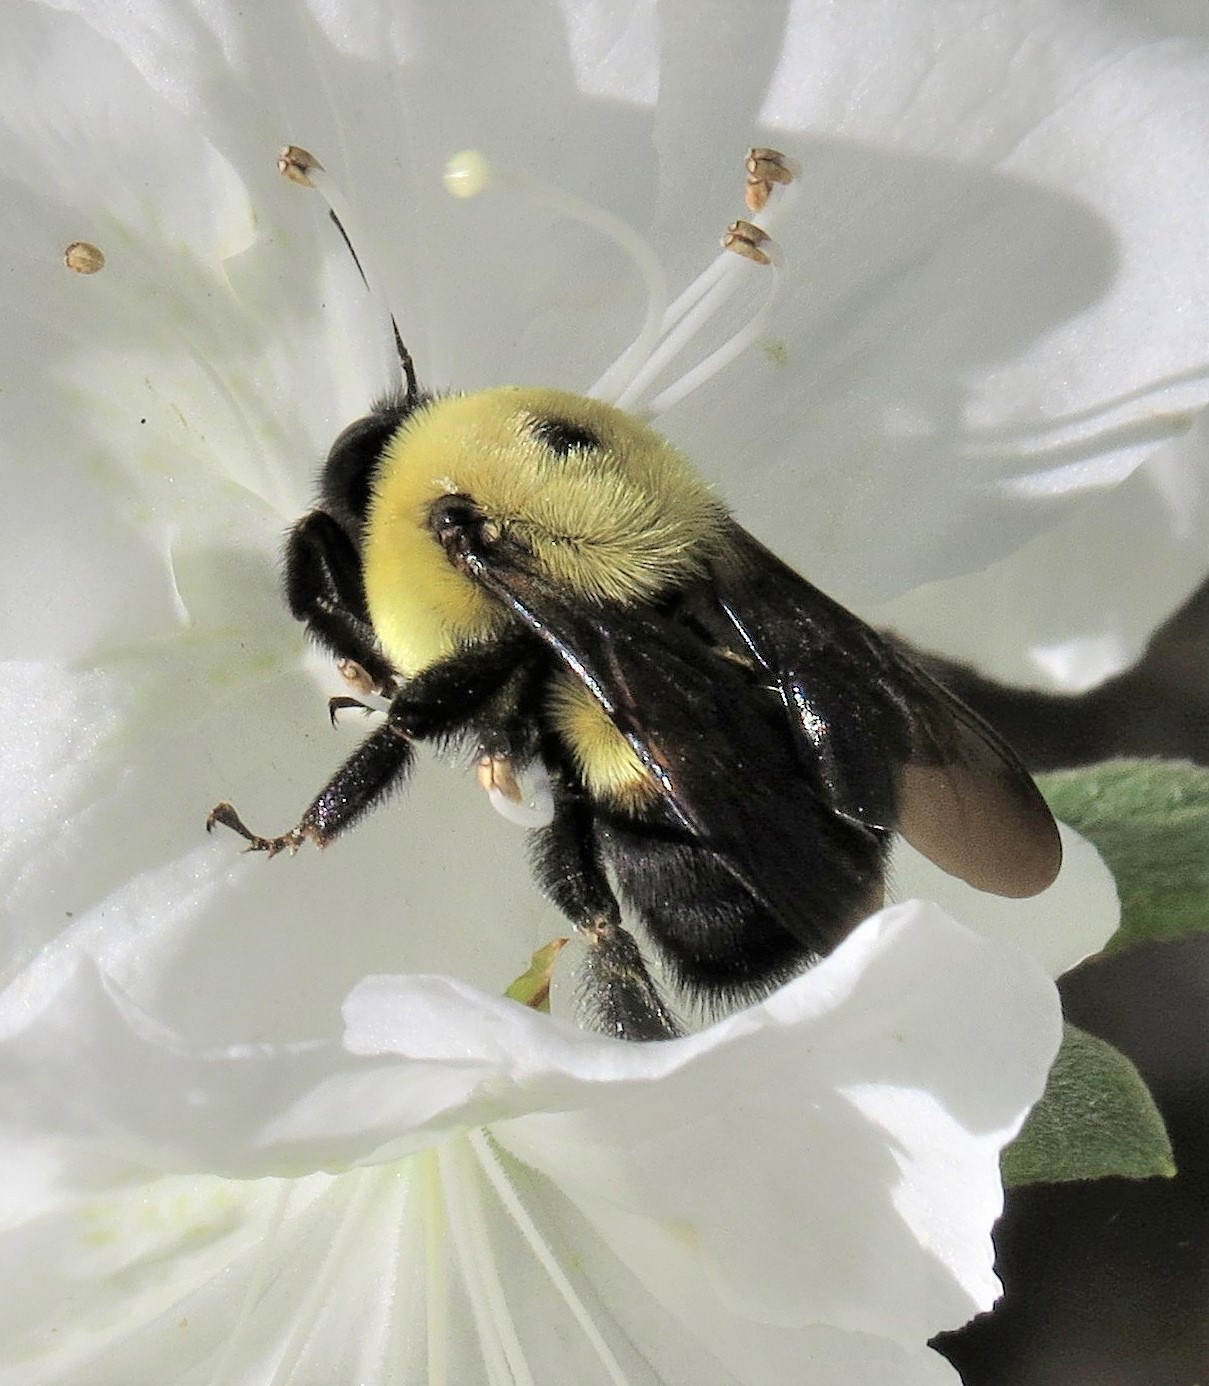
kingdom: Animalia
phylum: Arthropoda
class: Insecta
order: Hymenoptera
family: Apidae
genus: Bombus
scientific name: Bombus griseocollis
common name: Brown-belted bumble bee
